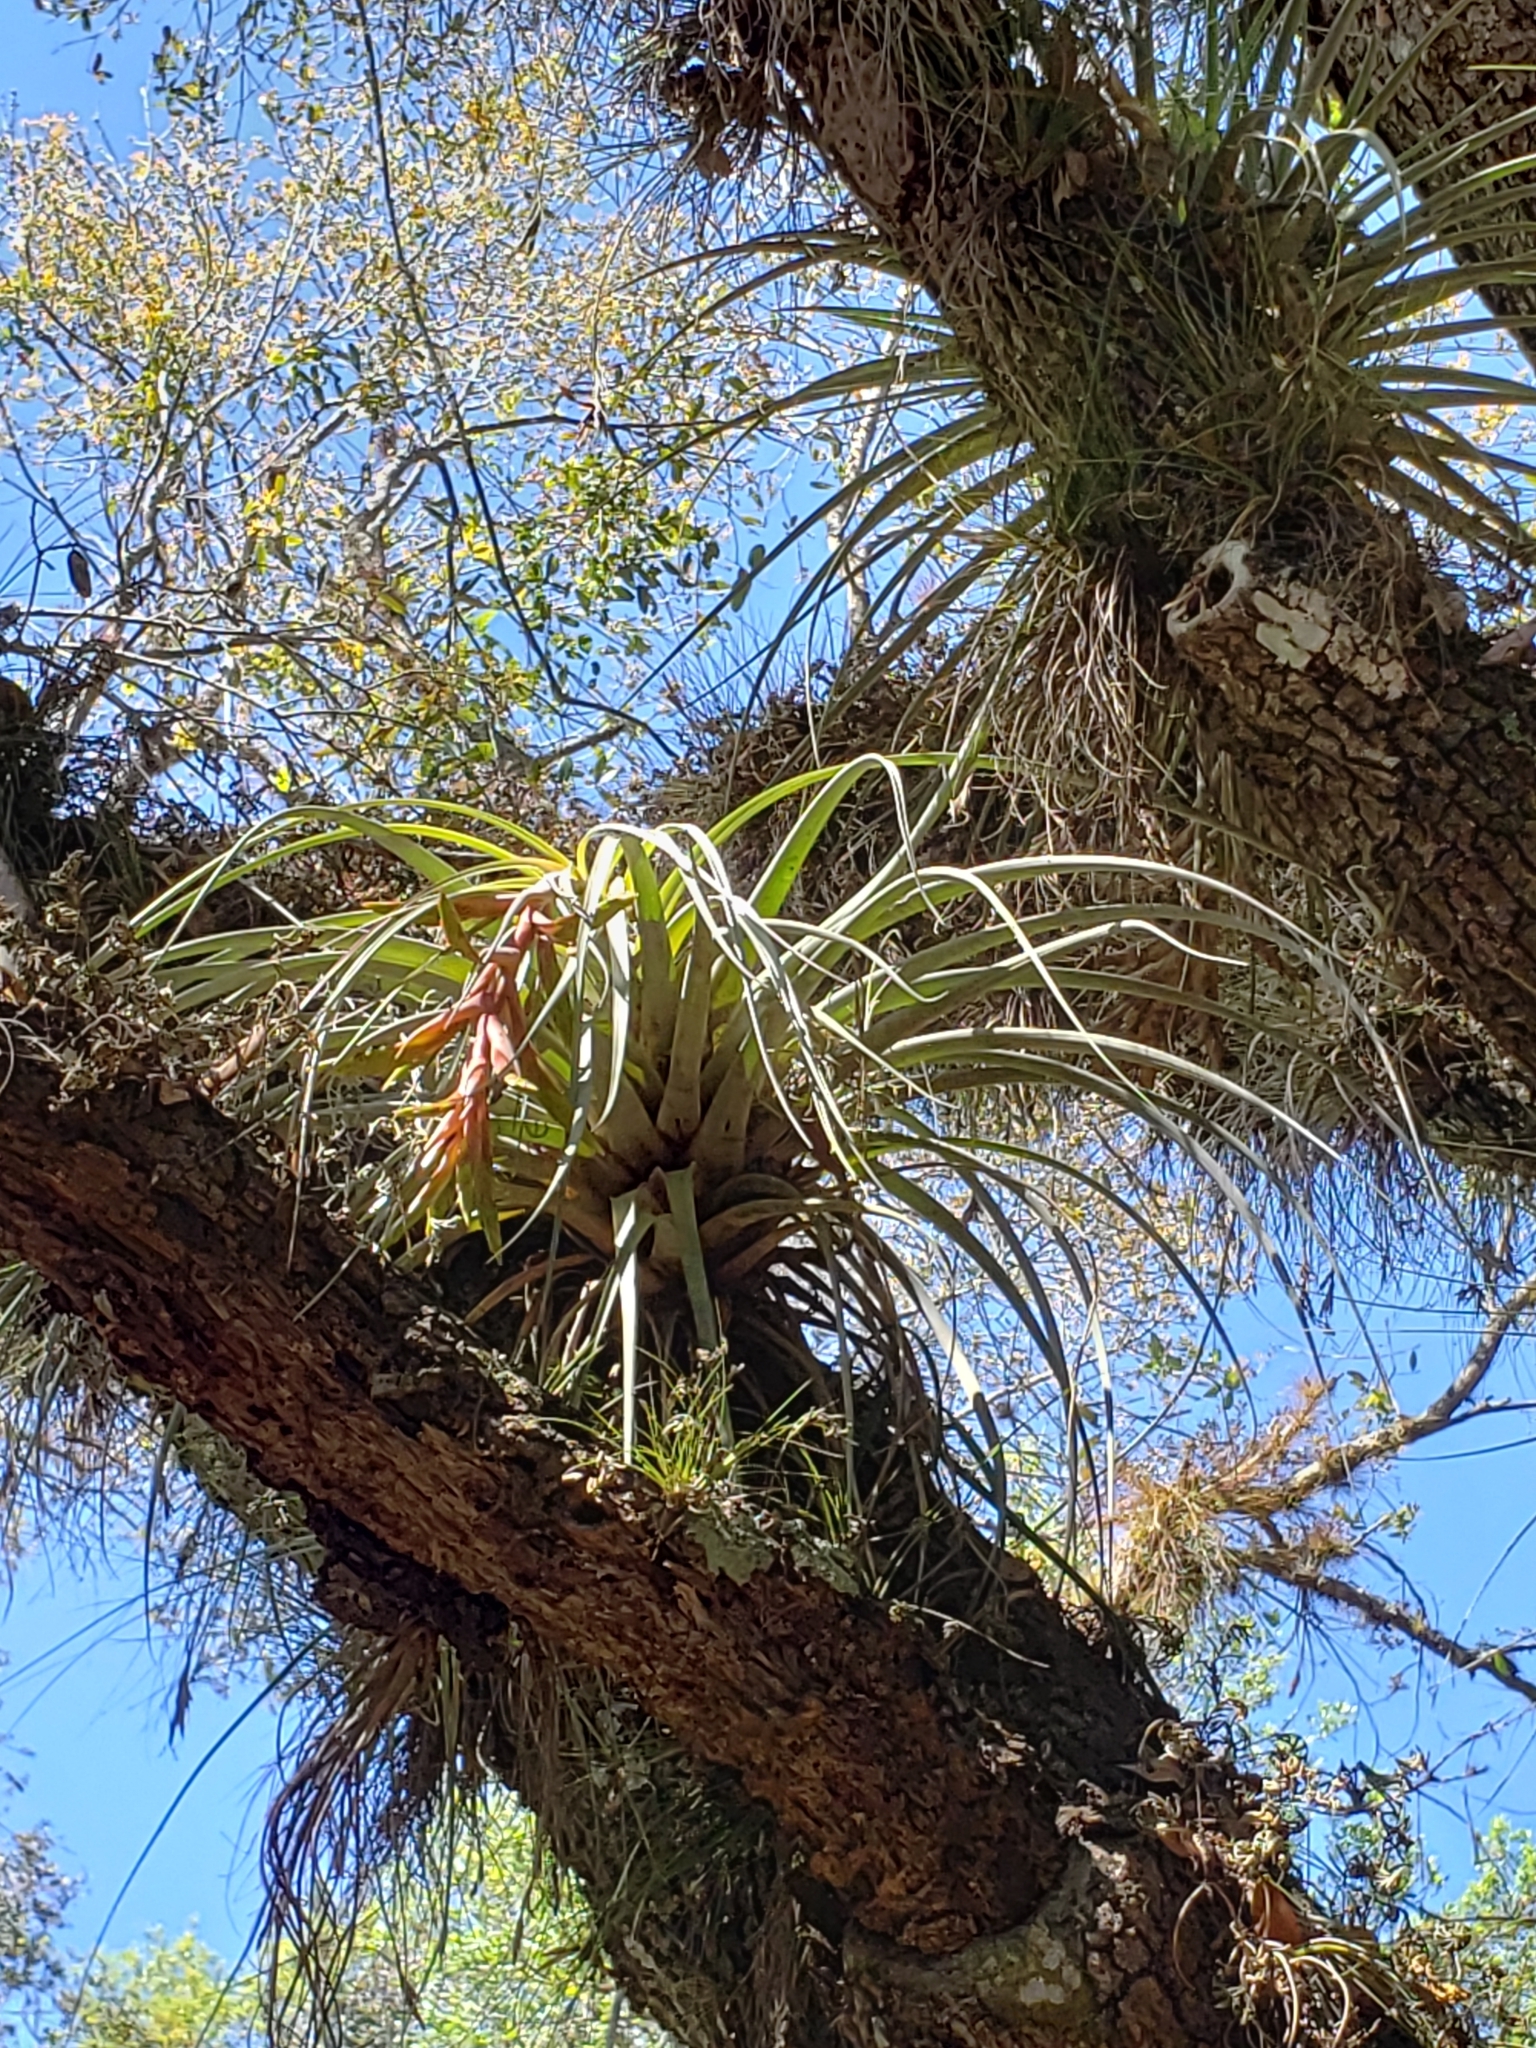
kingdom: Plantae
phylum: Tracheophyta
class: Liliopsida
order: Poales
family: Bromeliaceae
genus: Tillandsia
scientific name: Tillandsia fasciculata
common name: Giant airplant
